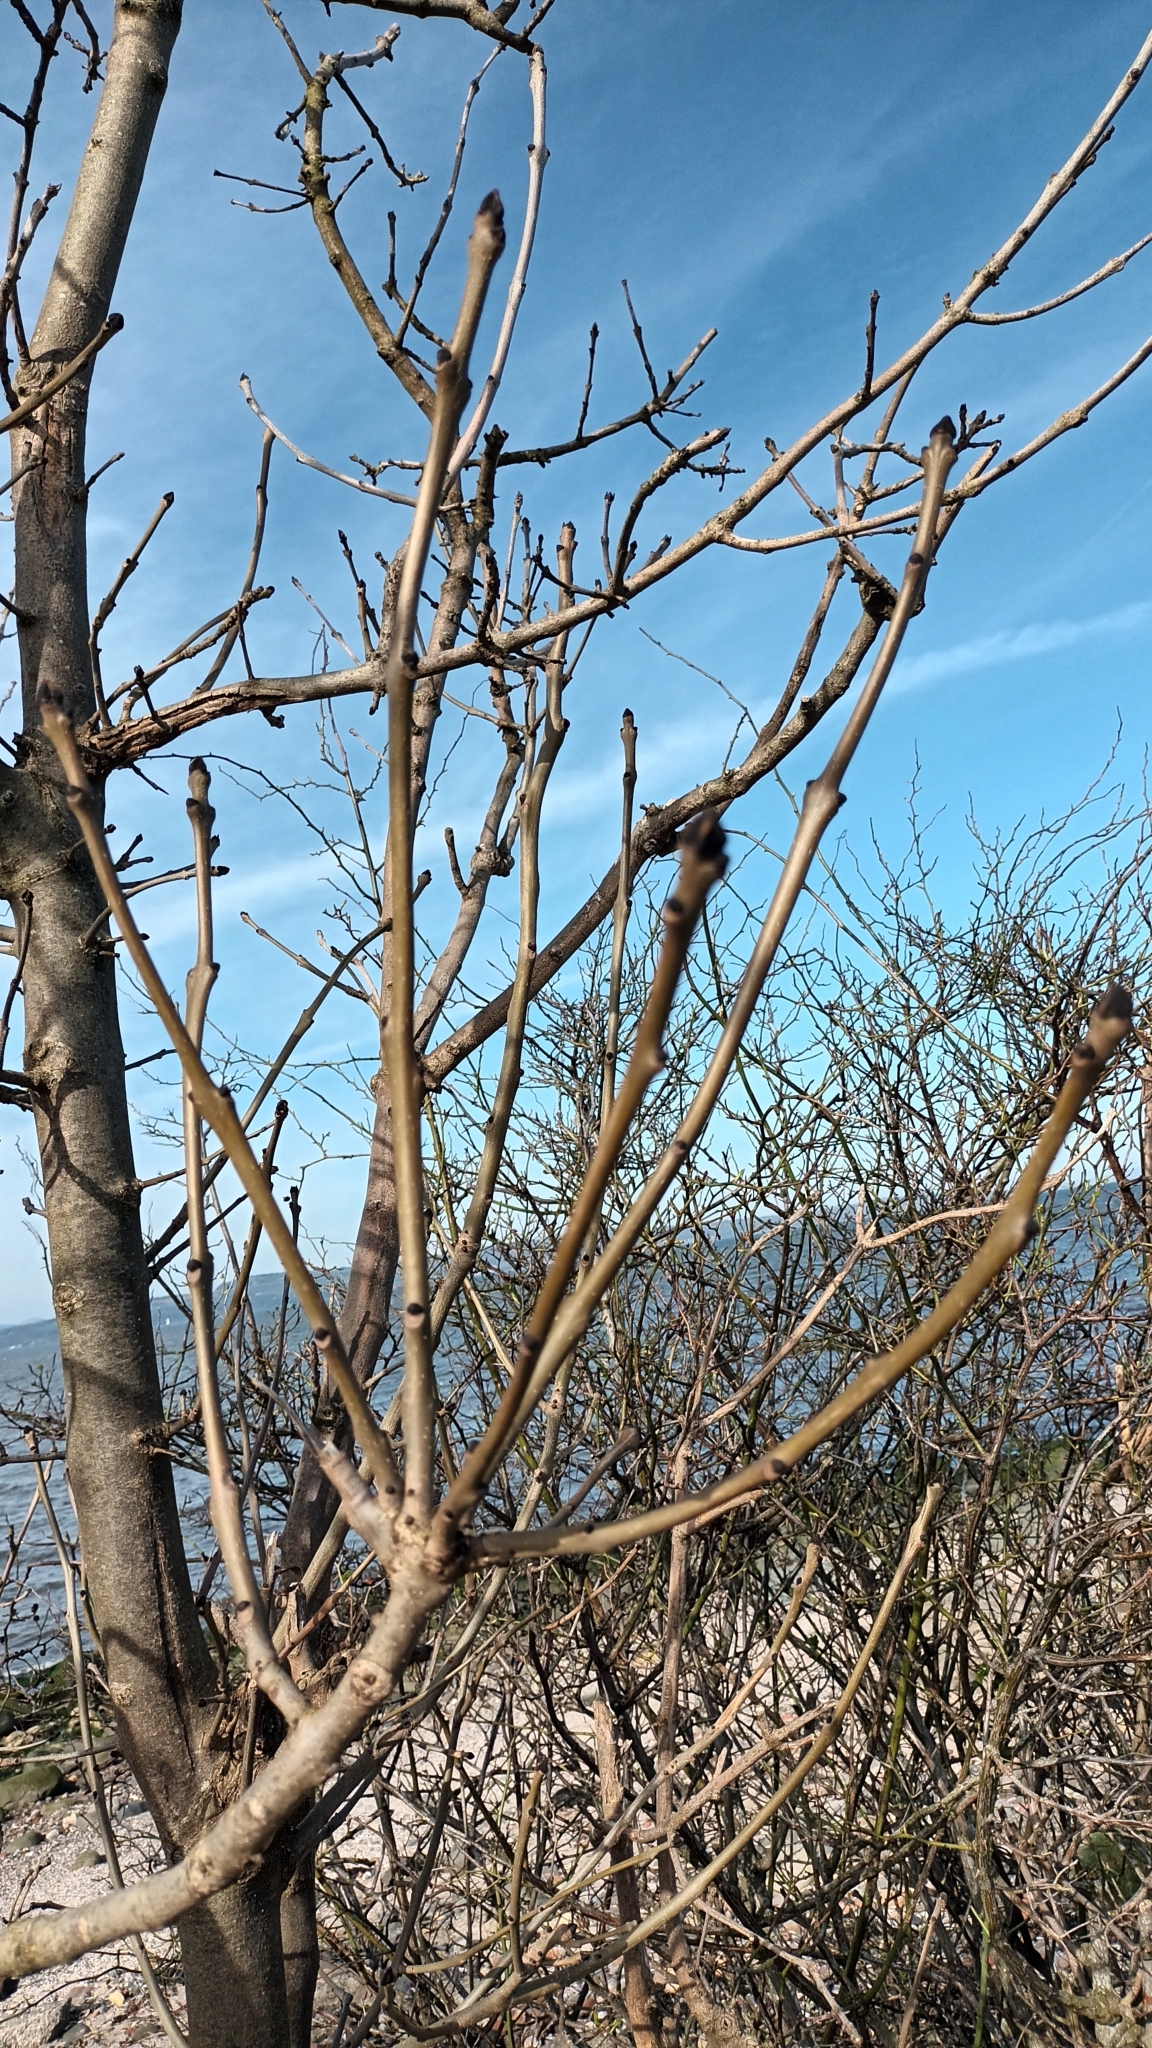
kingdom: Plantae
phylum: Tracheophyta
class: Magnoliopsida
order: Lamiales
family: Oleaceae
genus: Fraxinus
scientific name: Fraxinus excelsior
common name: European ash
